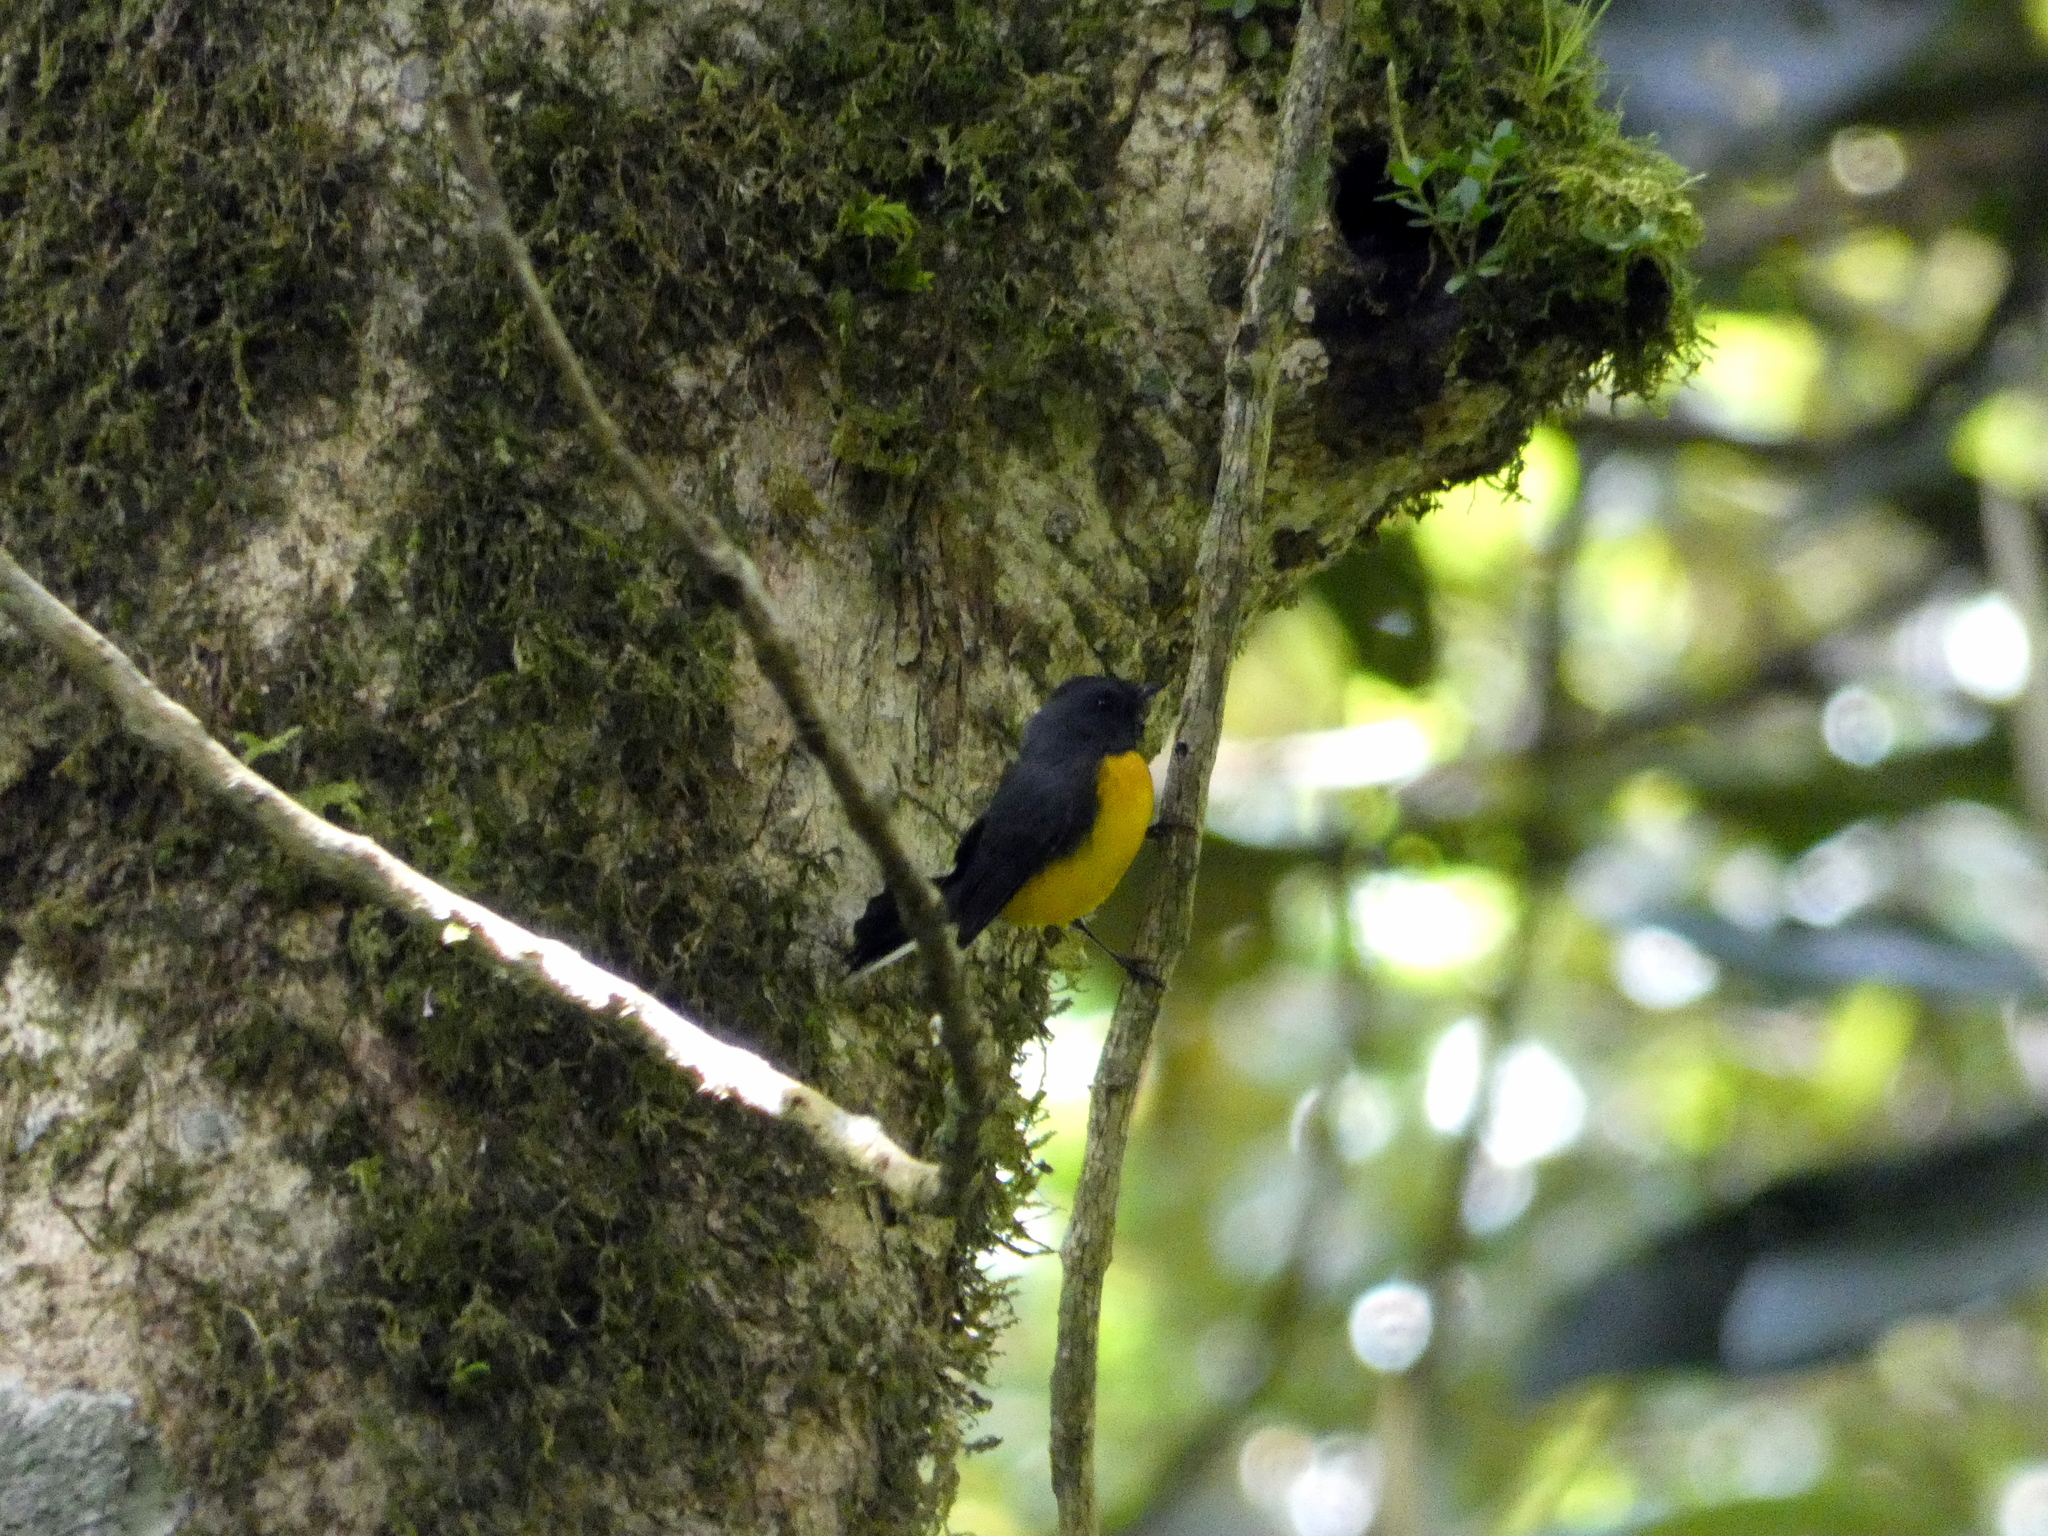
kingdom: Animalia
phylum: Chordata
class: Aves
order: Passeriformes
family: Parulidae
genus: Myioborus
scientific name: Myioborus miniatus
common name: Slate-throated redstart
